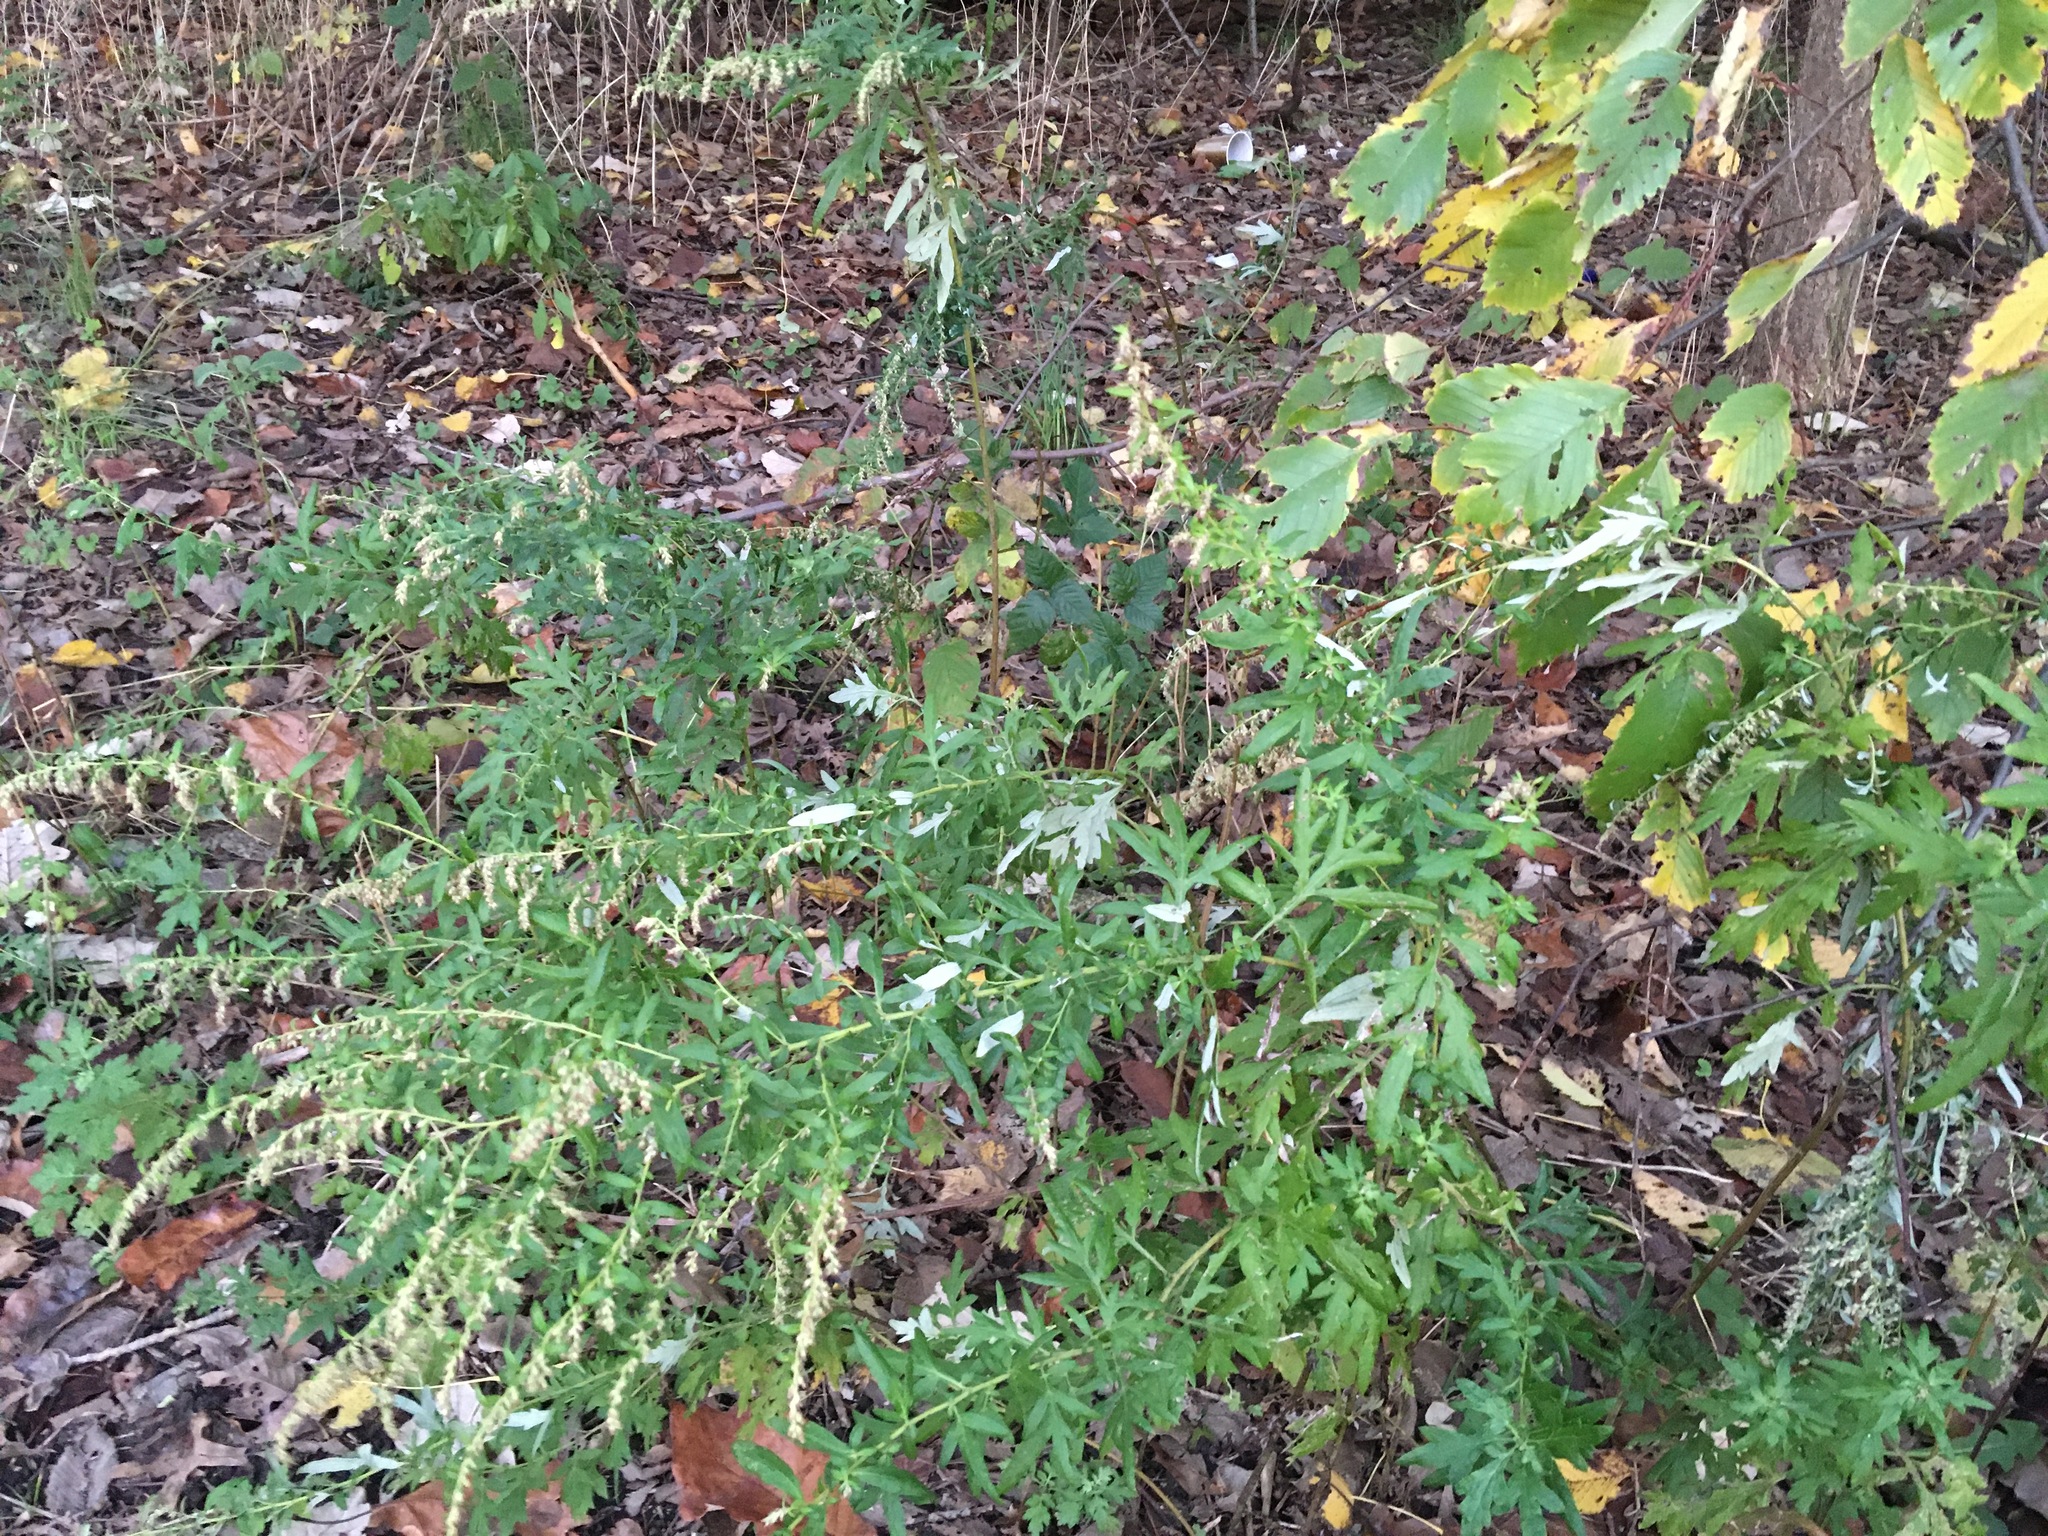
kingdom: Plantae
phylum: Tracheophyta
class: Magnoliopsida
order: Asterales
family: Asteraceae
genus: Artemisia
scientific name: Artemisia vulgaris
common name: Mugwort
